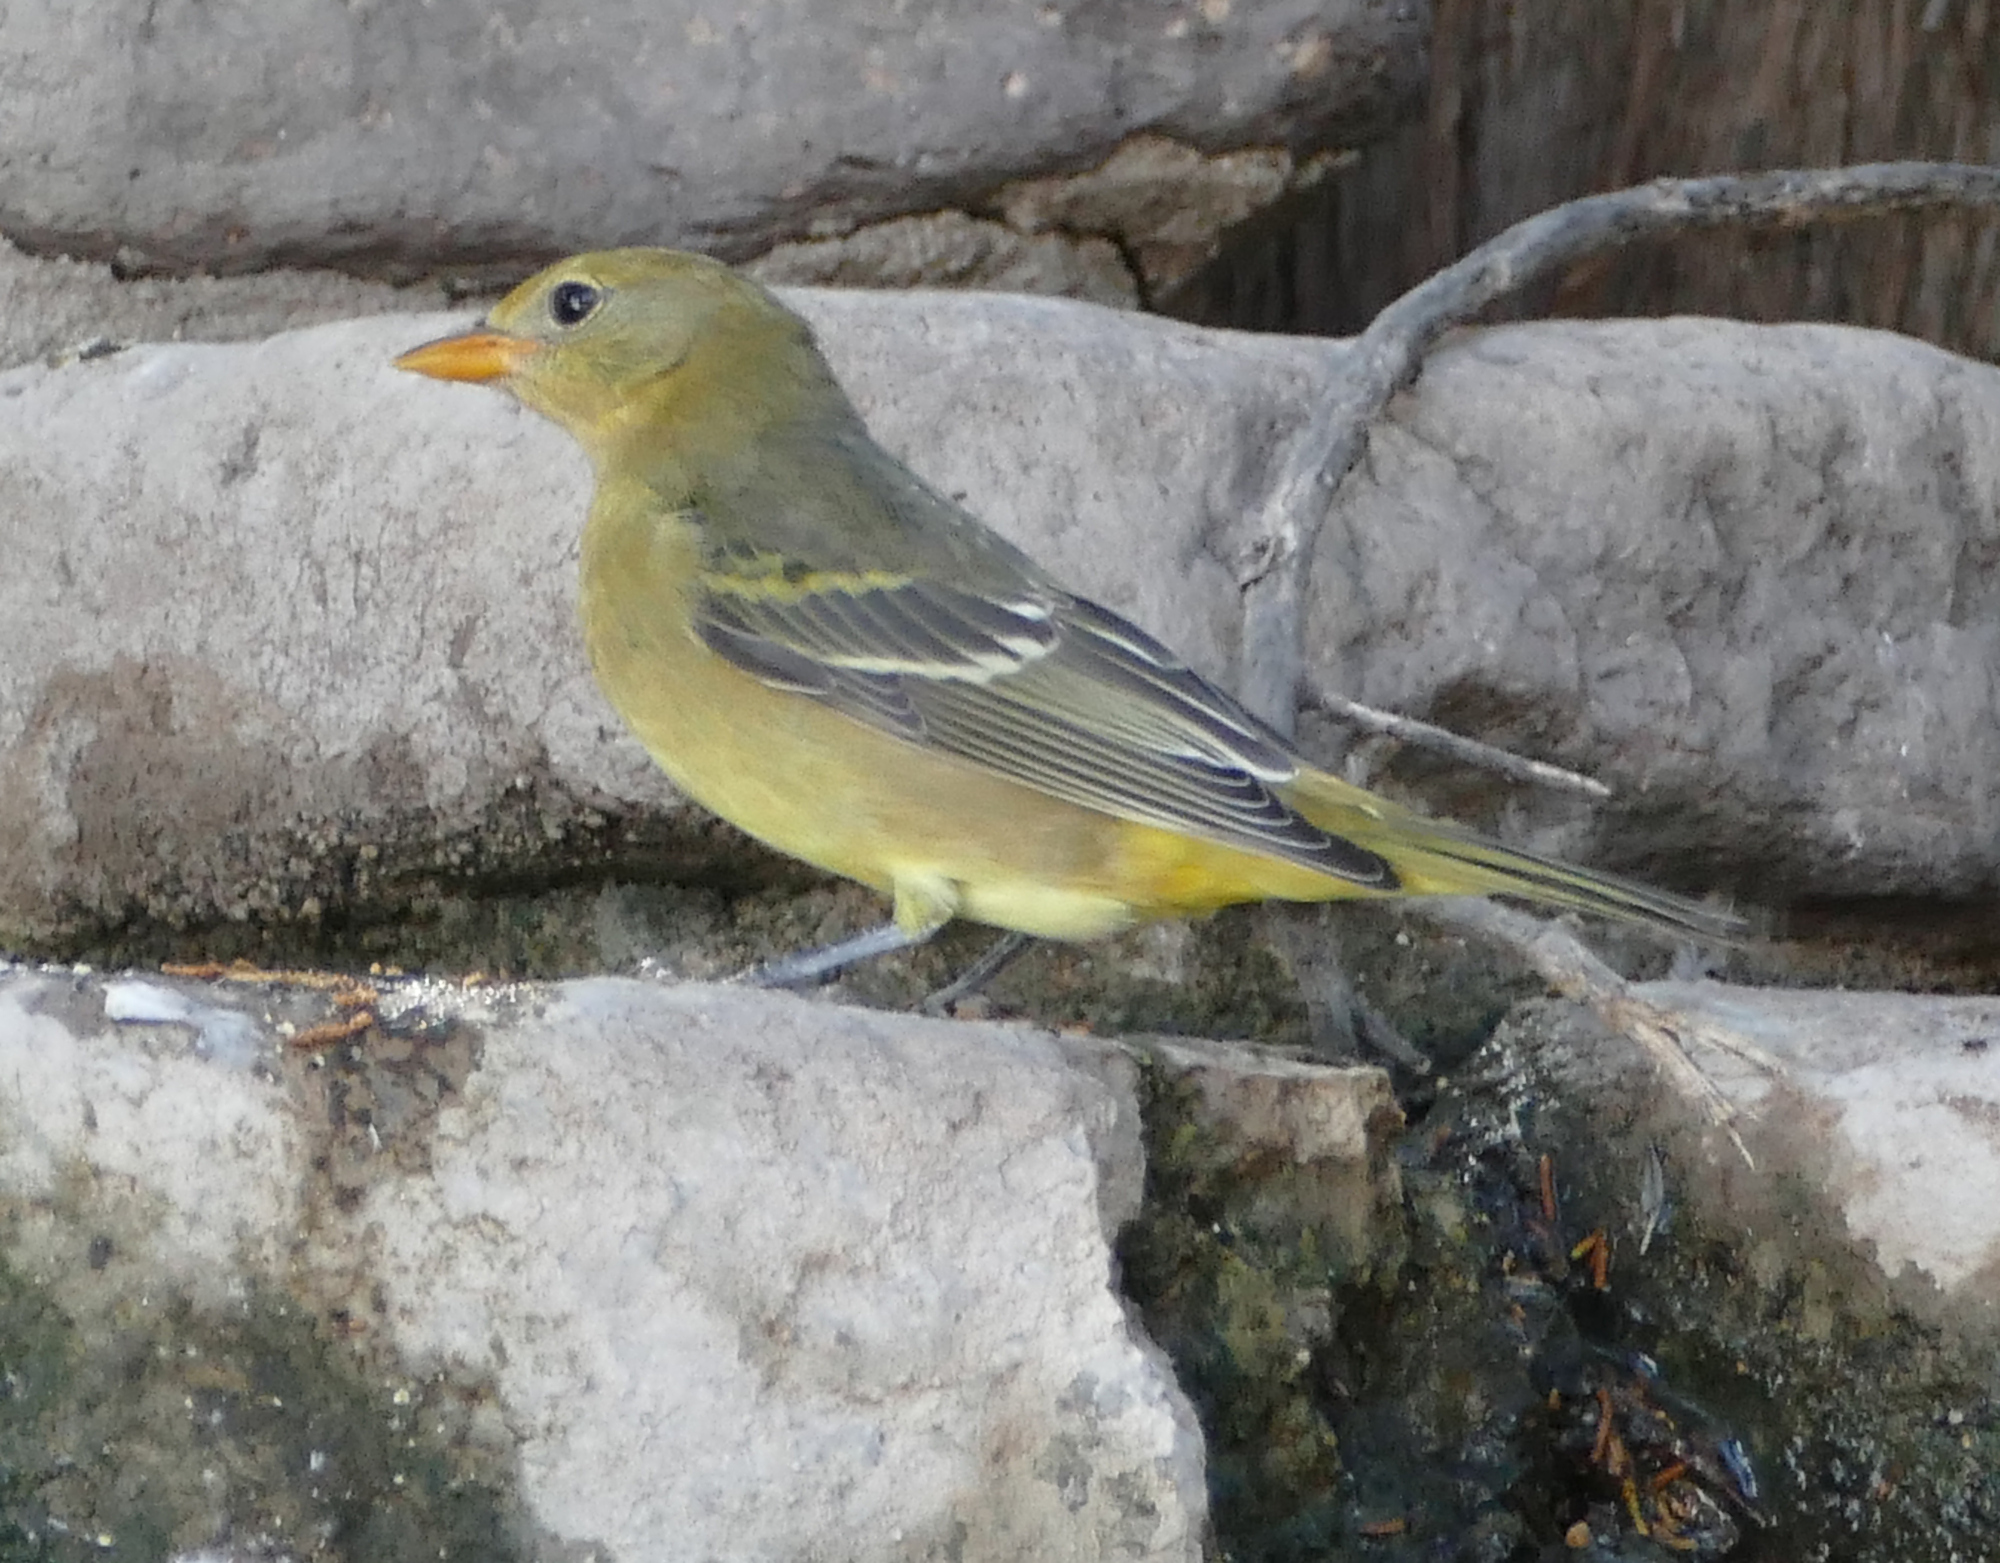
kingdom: Animalia
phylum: Chordata
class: Aves
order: Passeriformes
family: Cardinalidae
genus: Piranga
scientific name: Piranga ludoviciana
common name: Western tanager
